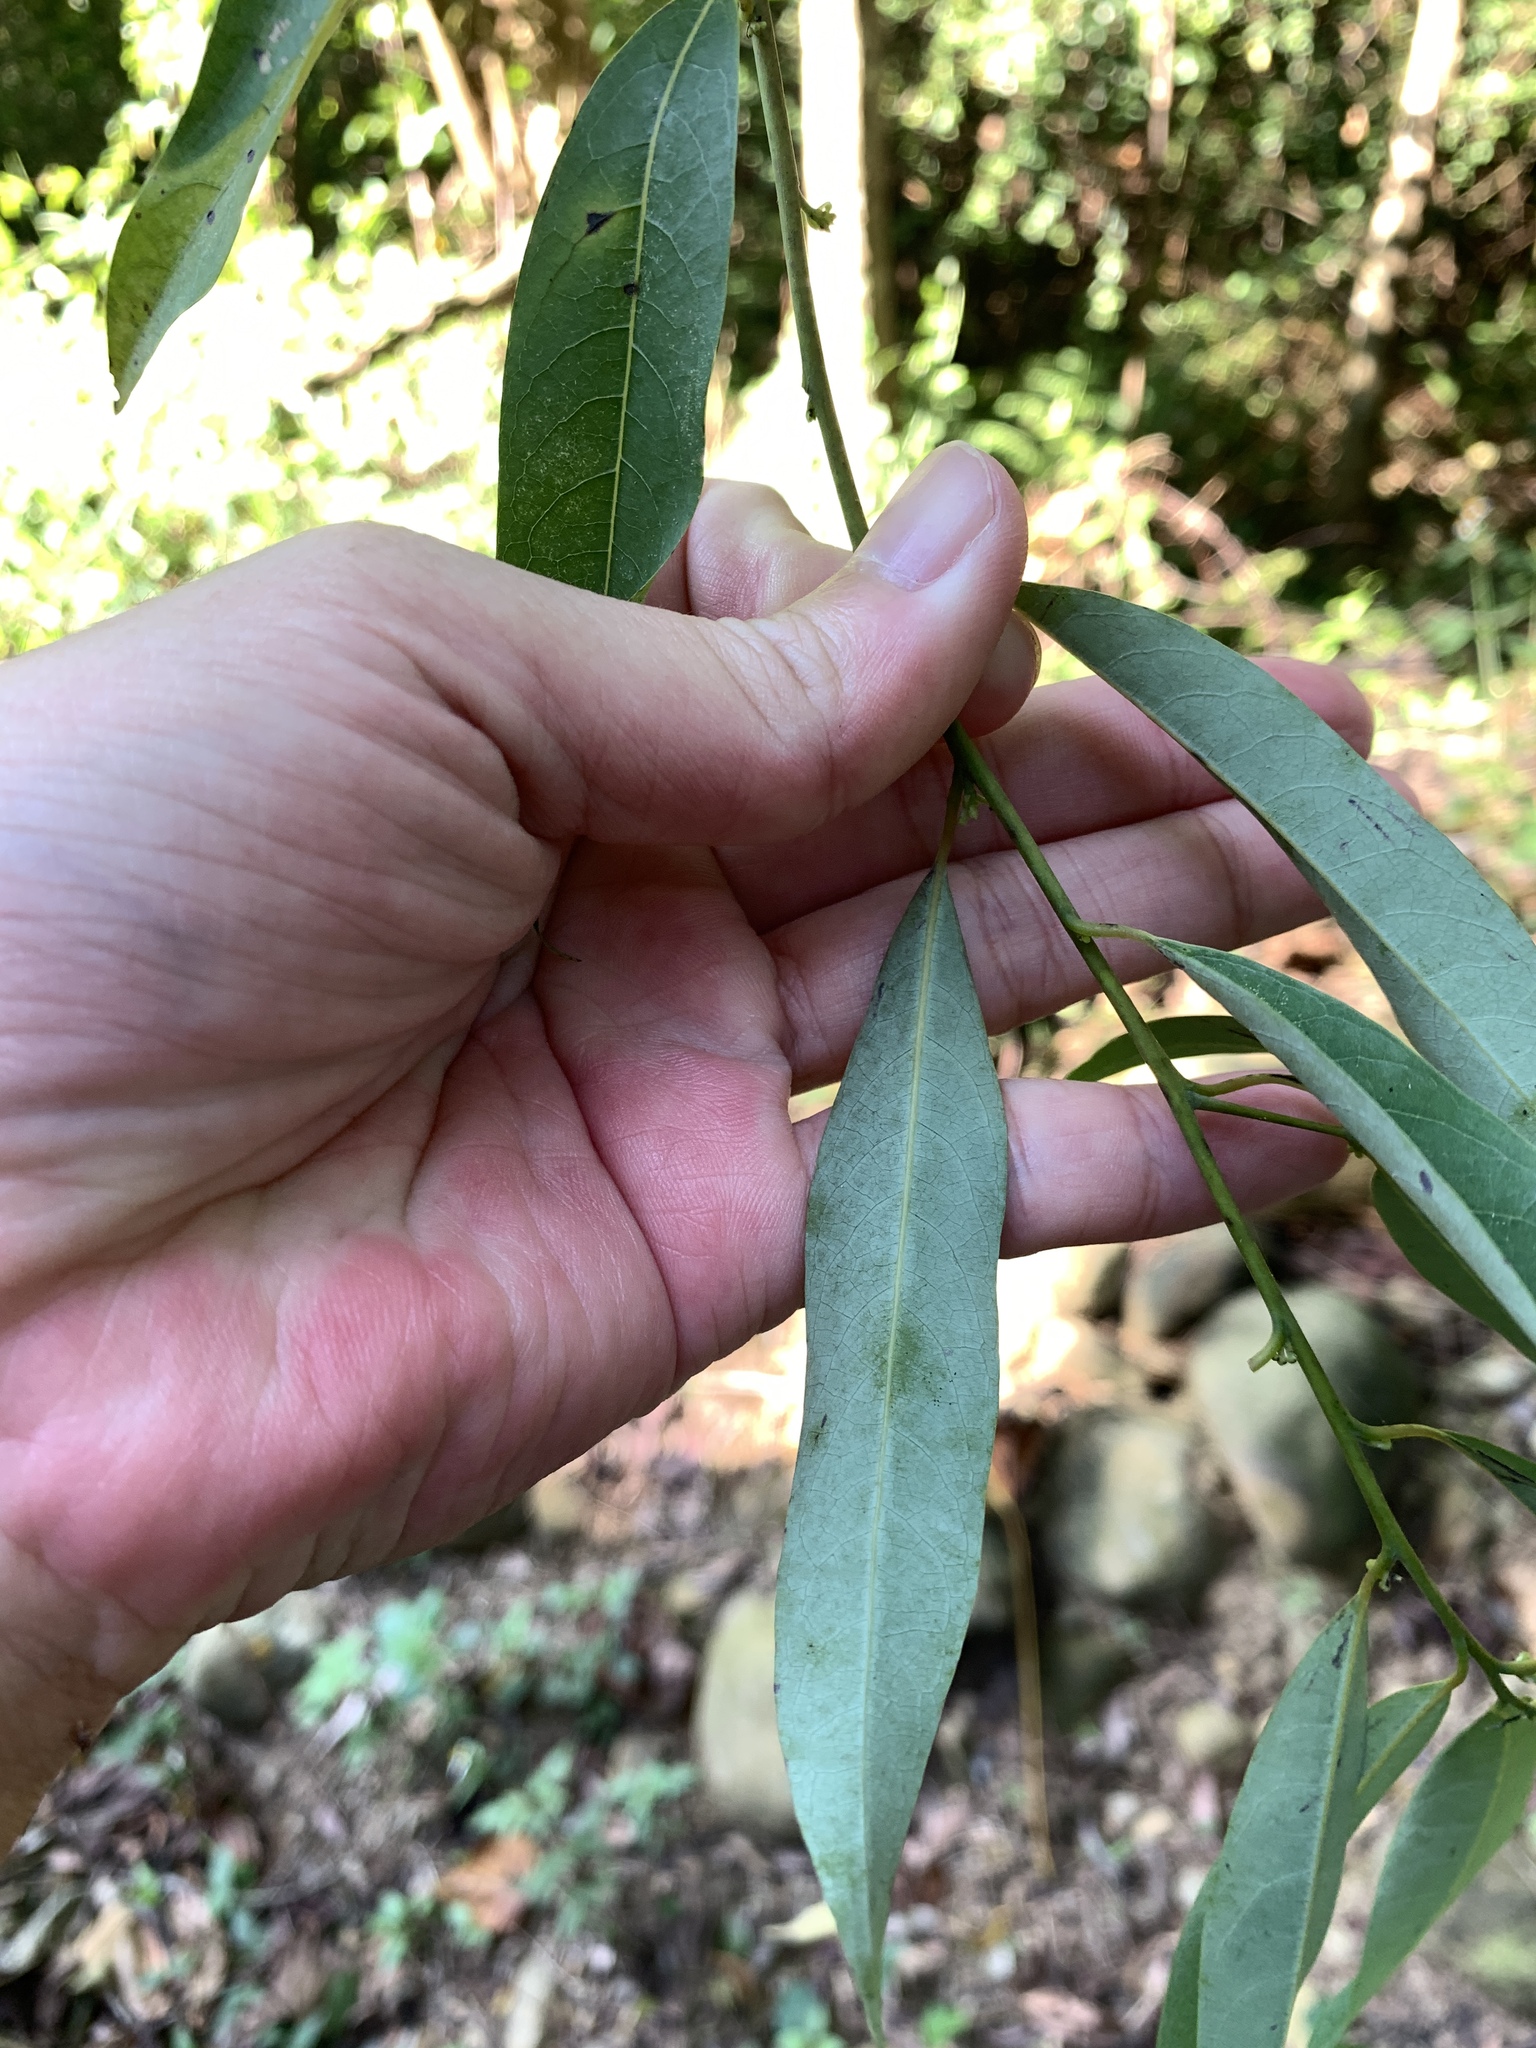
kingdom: Plantae
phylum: Tracheophyta
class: Magnoliopsida
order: Laurales
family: Lauraceae
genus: Litsea
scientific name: Litsea cubeba
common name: Mountain-pepper
